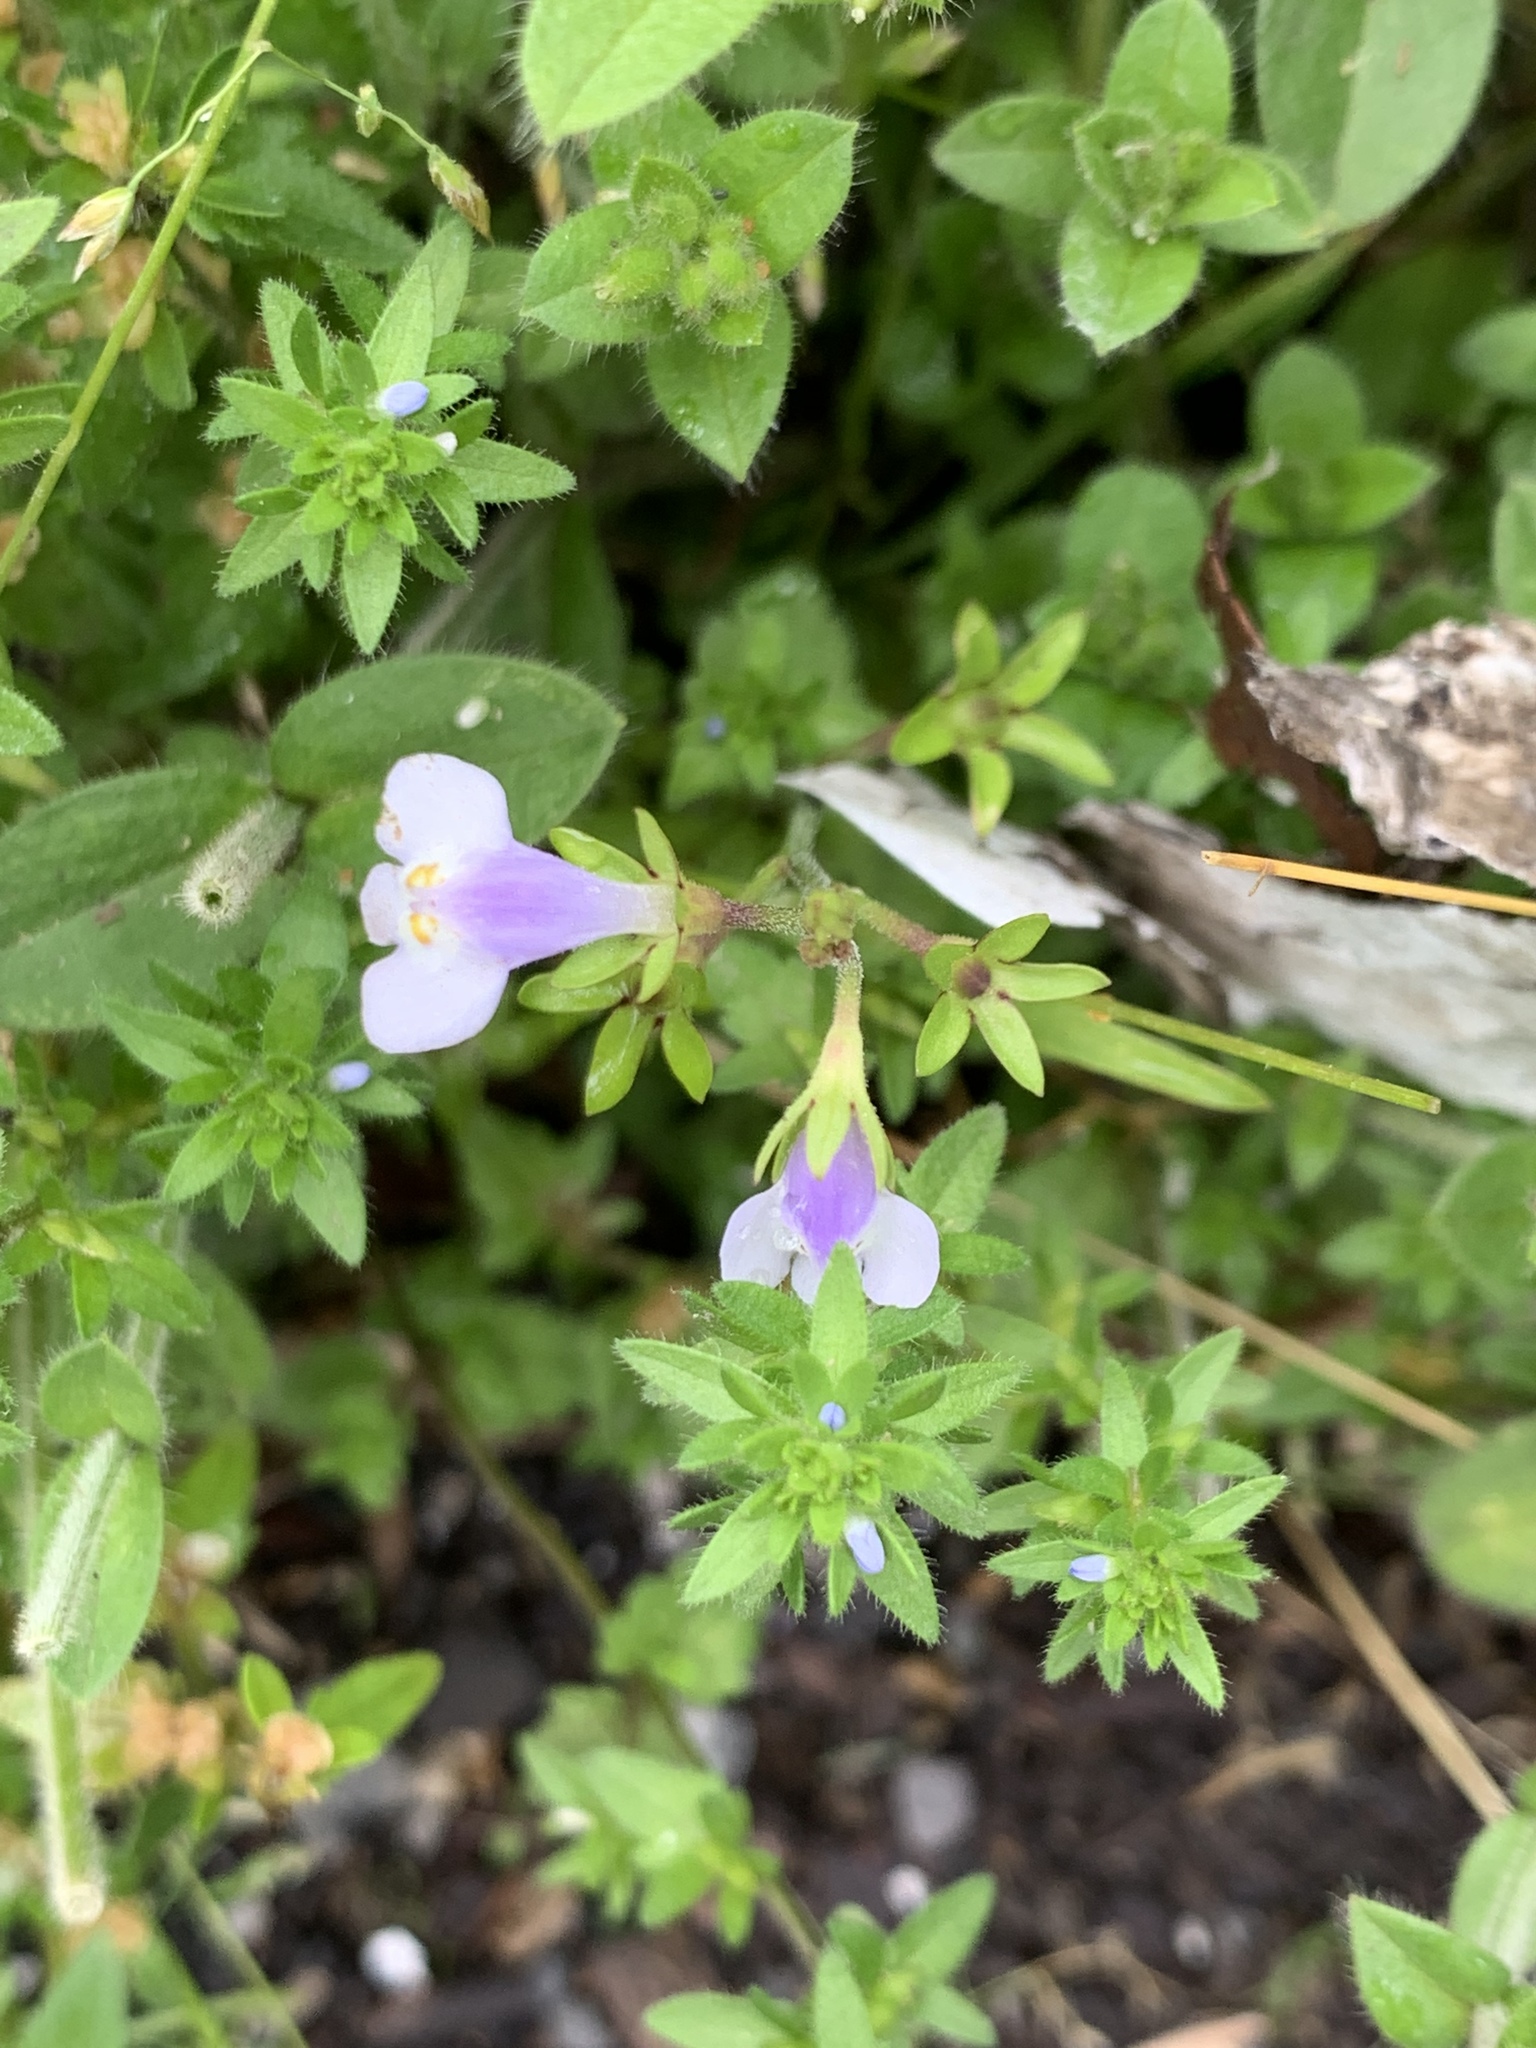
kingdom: Plantae
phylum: Tracheophyta
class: Magnoliopsida
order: Lamiales
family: Mazaceae
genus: Mazus
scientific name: Mazus pumilus
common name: Japanese mazus
